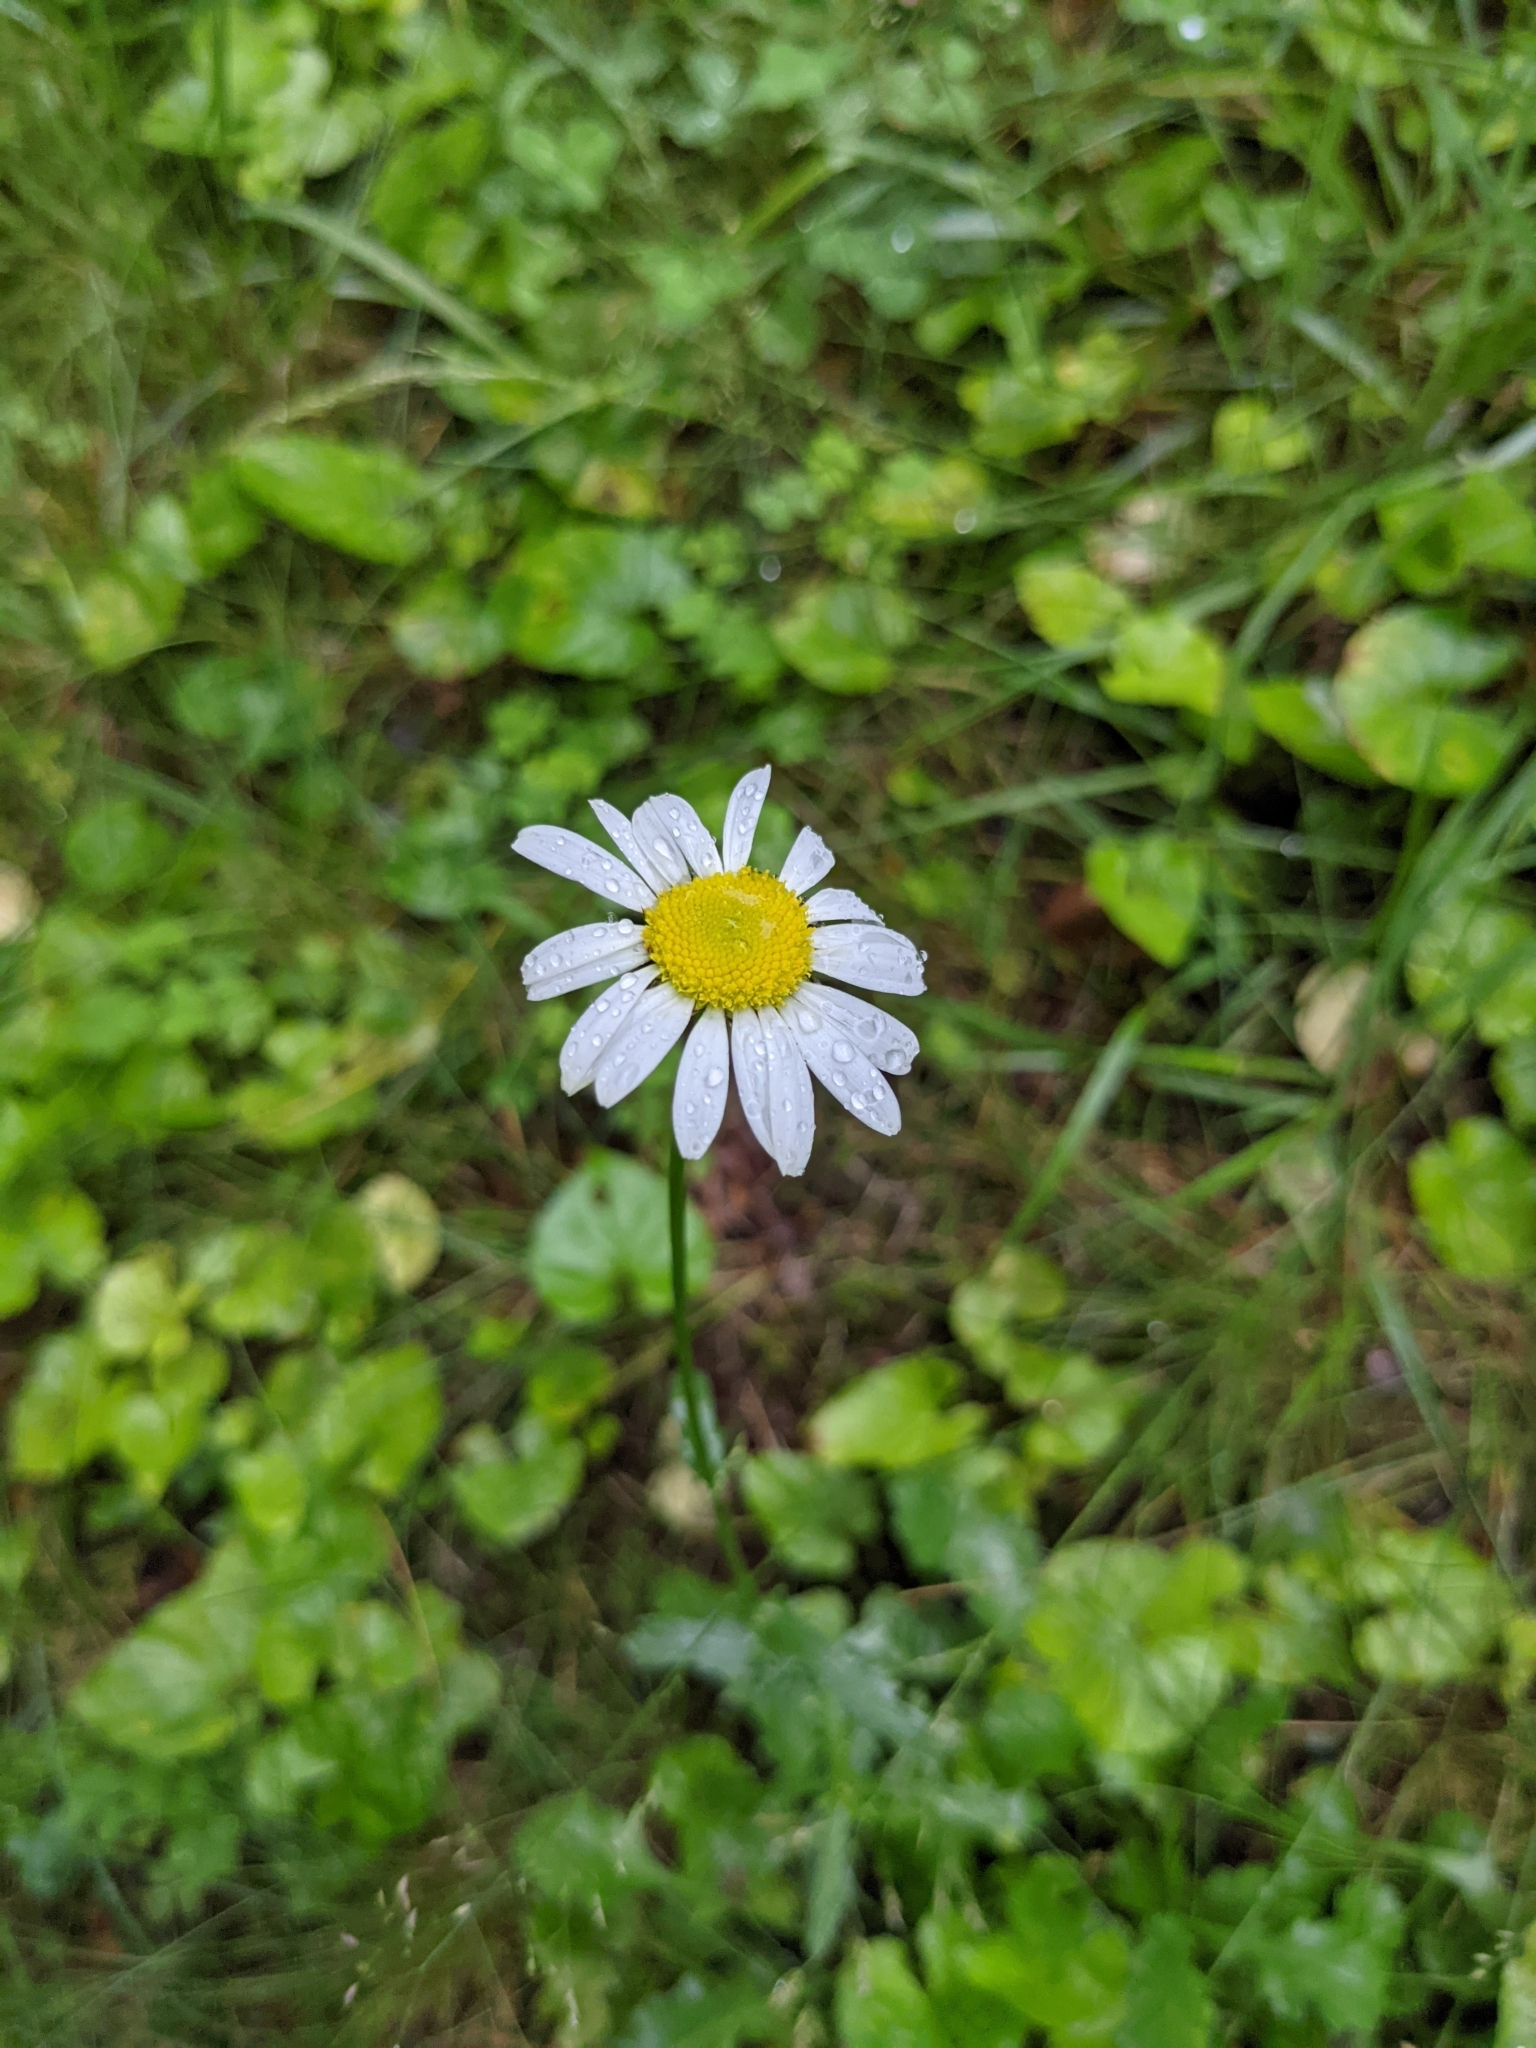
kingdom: Plantae
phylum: Tracheophyta
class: Magnoliopsida
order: Asterales
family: Asteraceae
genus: Leucanthemum
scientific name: Leucanthemum vulgare
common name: Oxeye daisy
